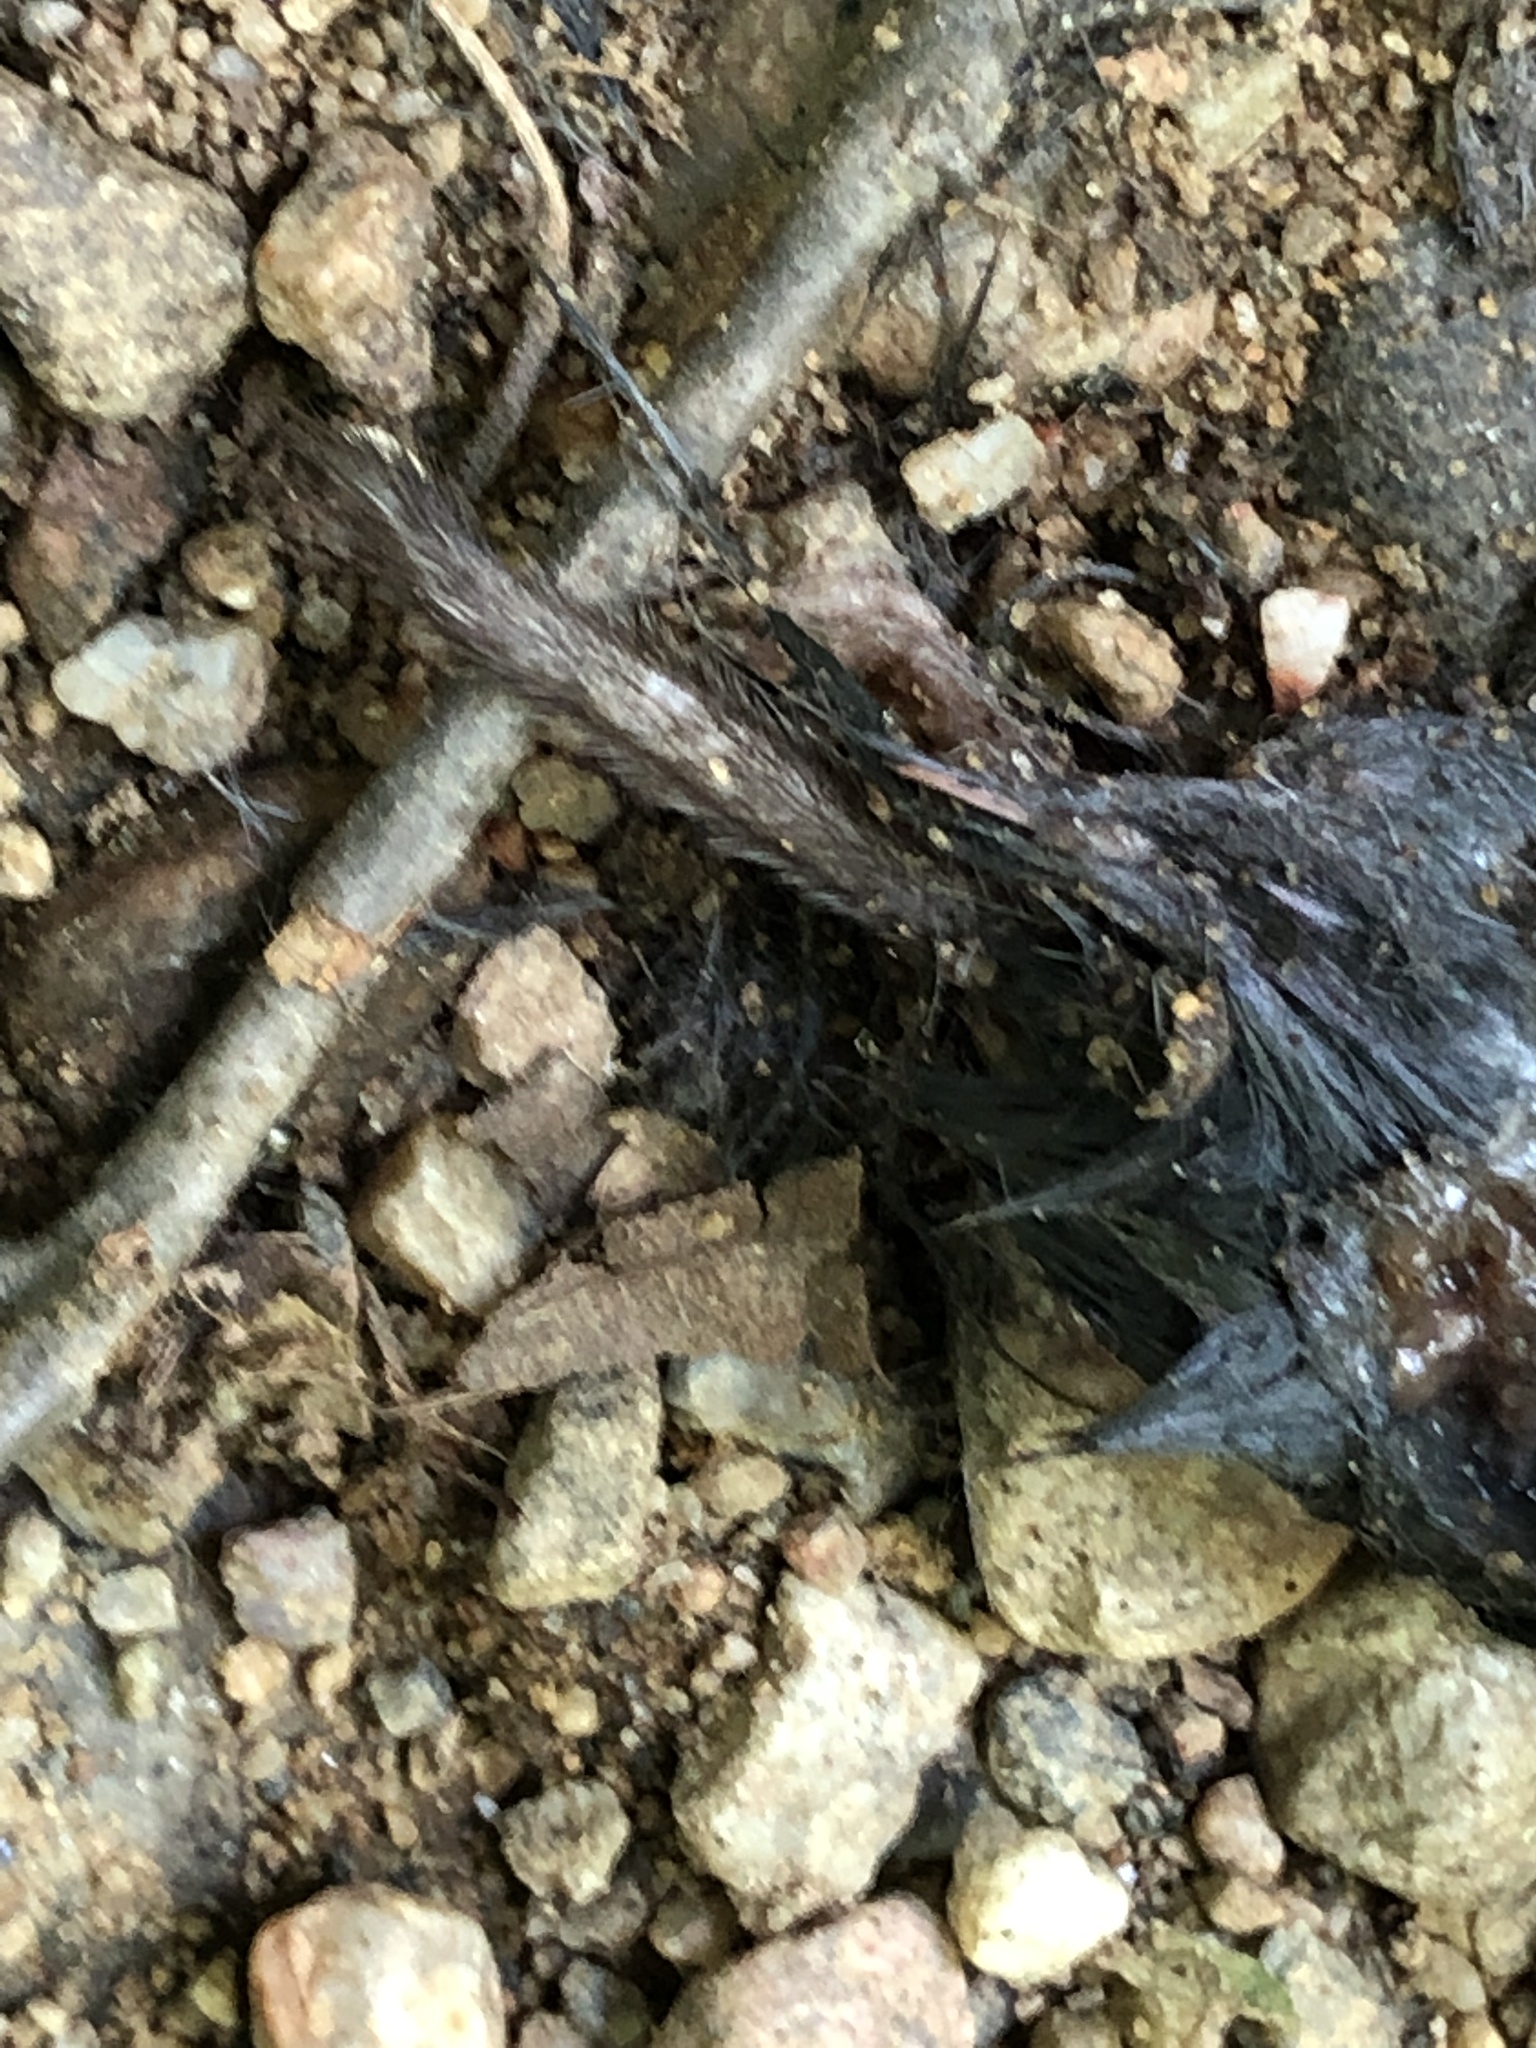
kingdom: Animalia
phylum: Chordata
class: Mammalia
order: Soricomorpha
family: Soricidae
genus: Blarina
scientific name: Blarina brevicauda
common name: Northern short-tailed shrew
